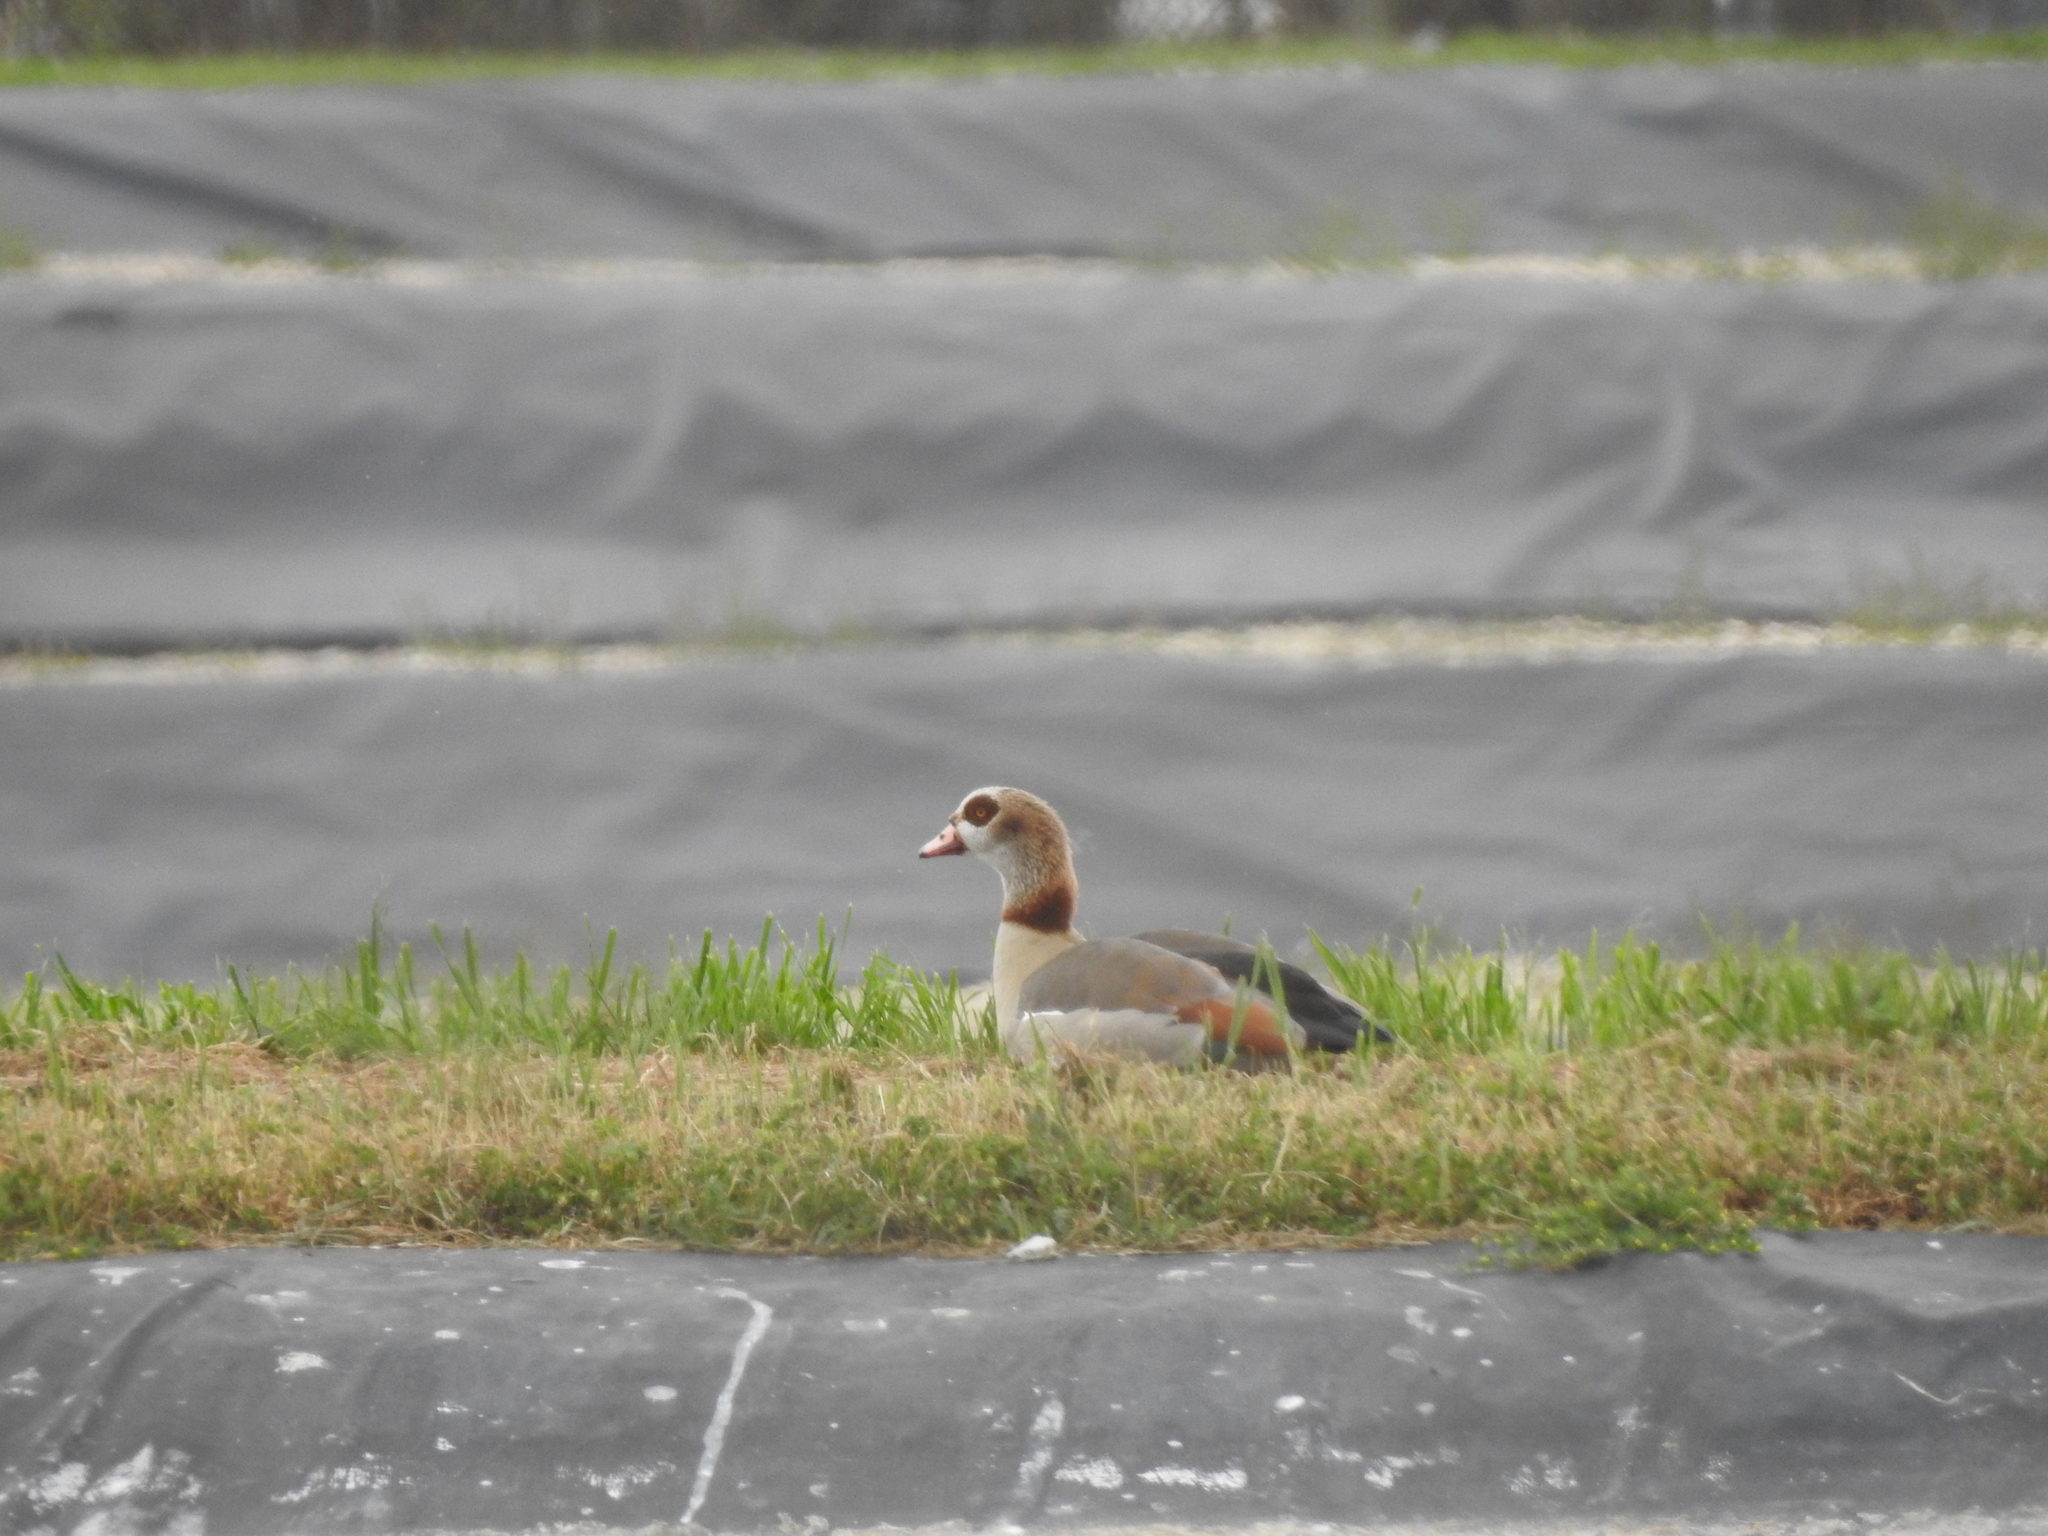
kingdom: Animalia
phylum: Chordata
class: Aves
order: Anseriformes
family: Anatidae
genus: Alopochen
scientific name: Alopochen aegyptiaca
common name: Egyptian goose
